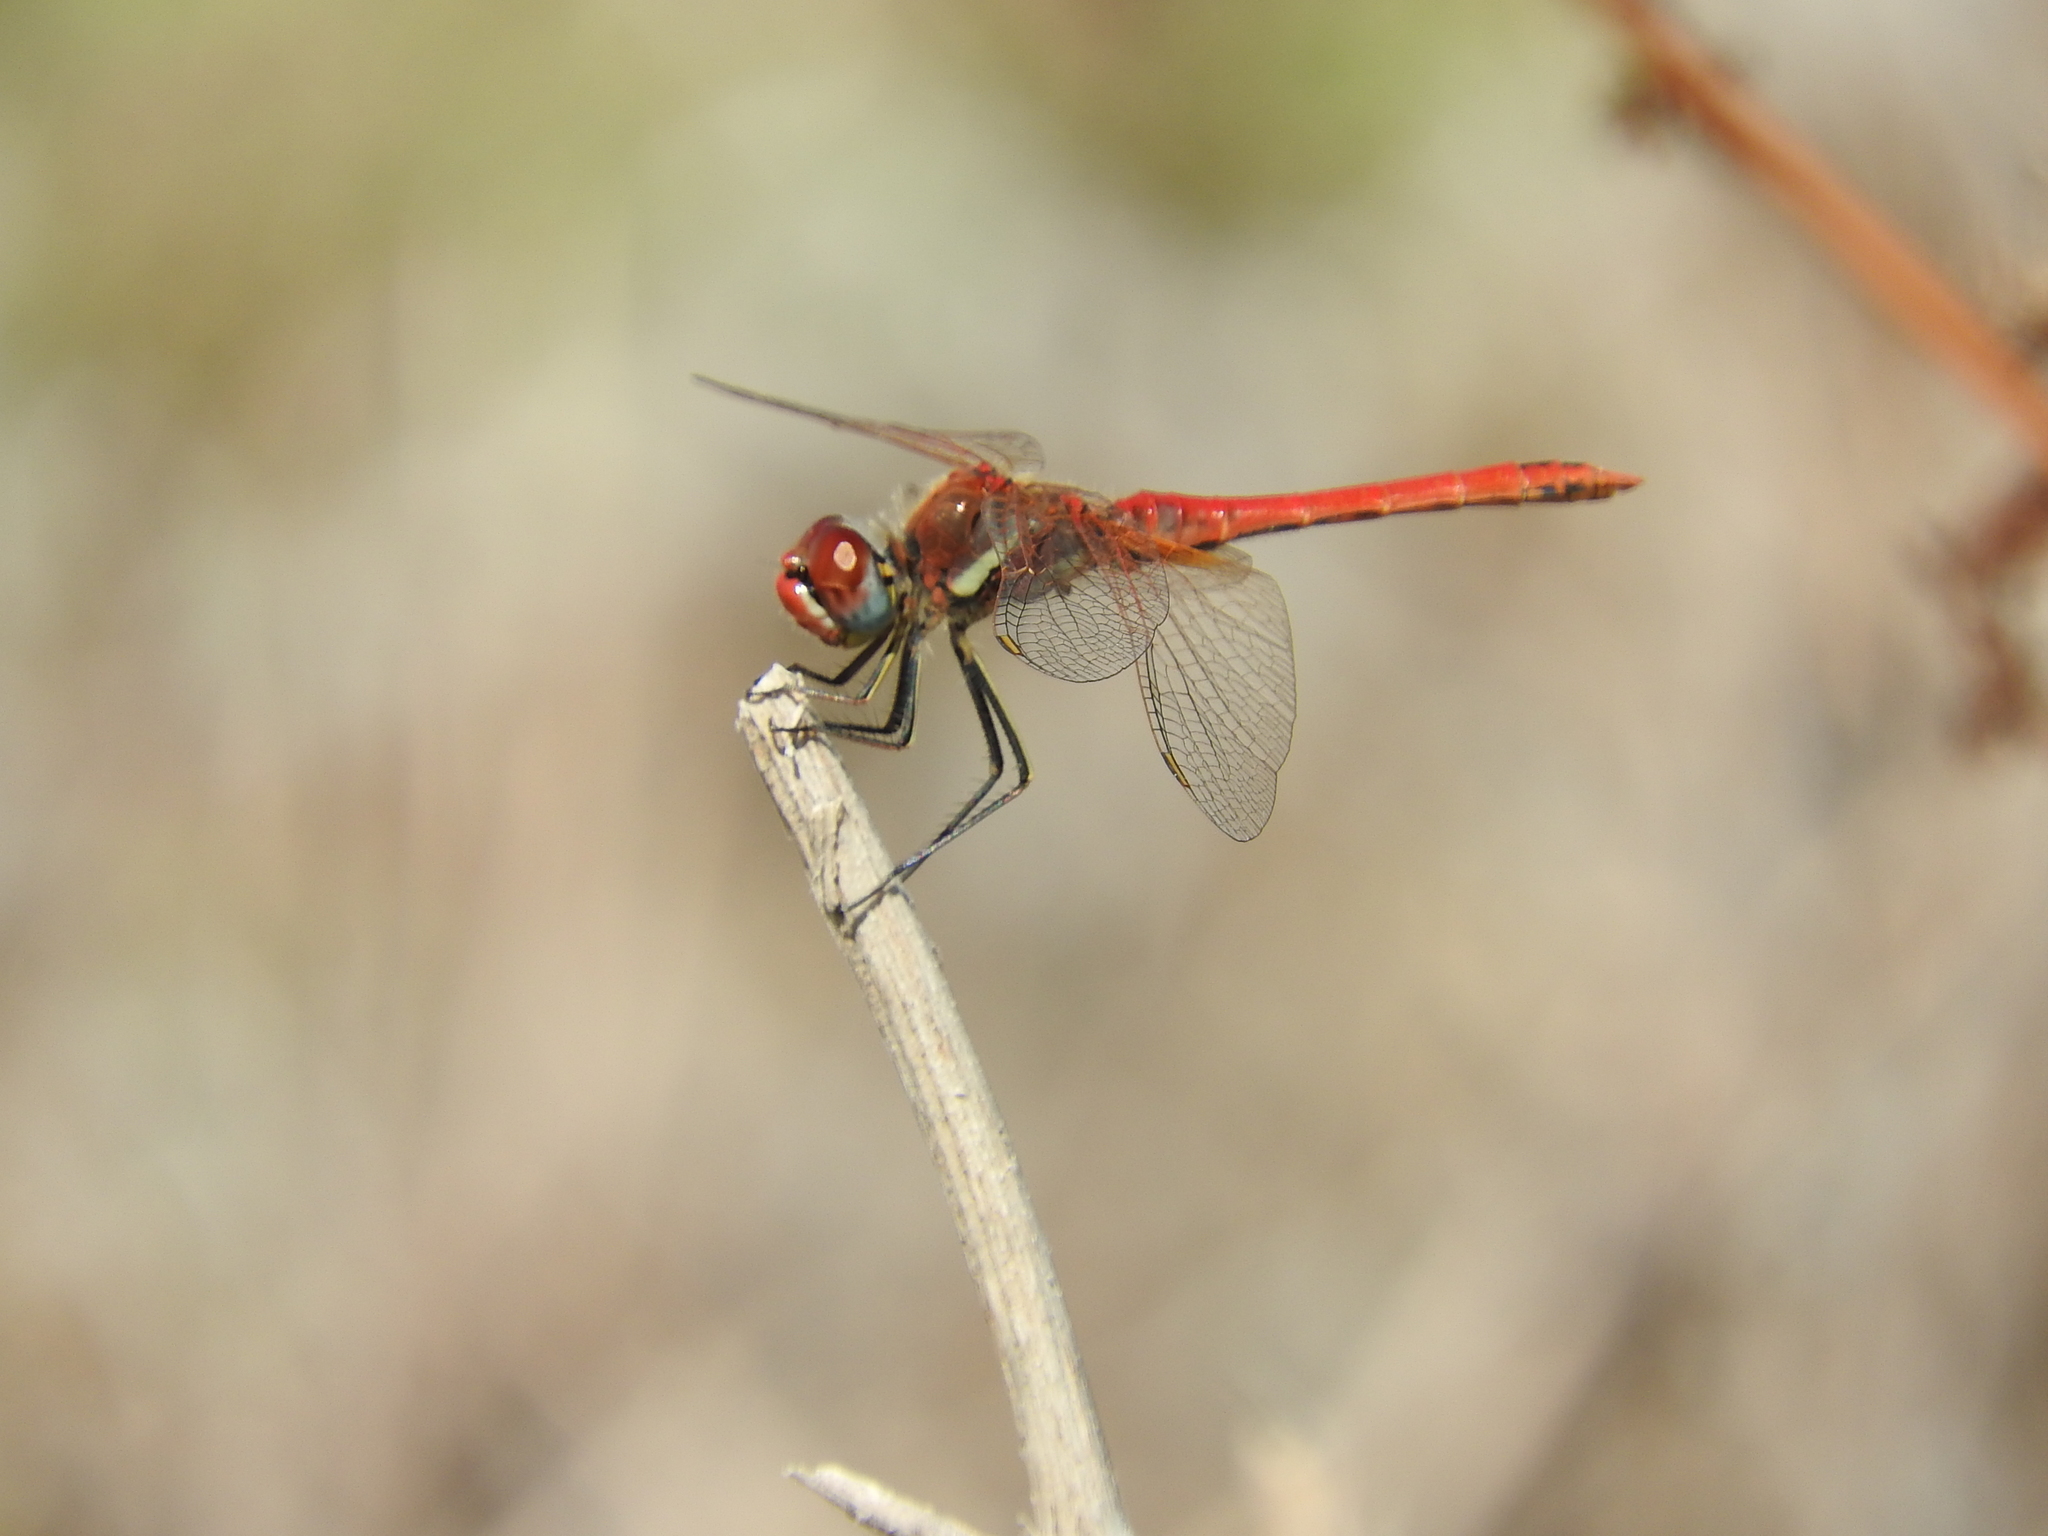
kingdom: Animalia
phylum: Arthropoda
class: Insecta
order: Odonata
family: Libellulidae
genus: Sympetrum
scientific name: Sympetrum fonscolombii
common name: Red-veined darter
